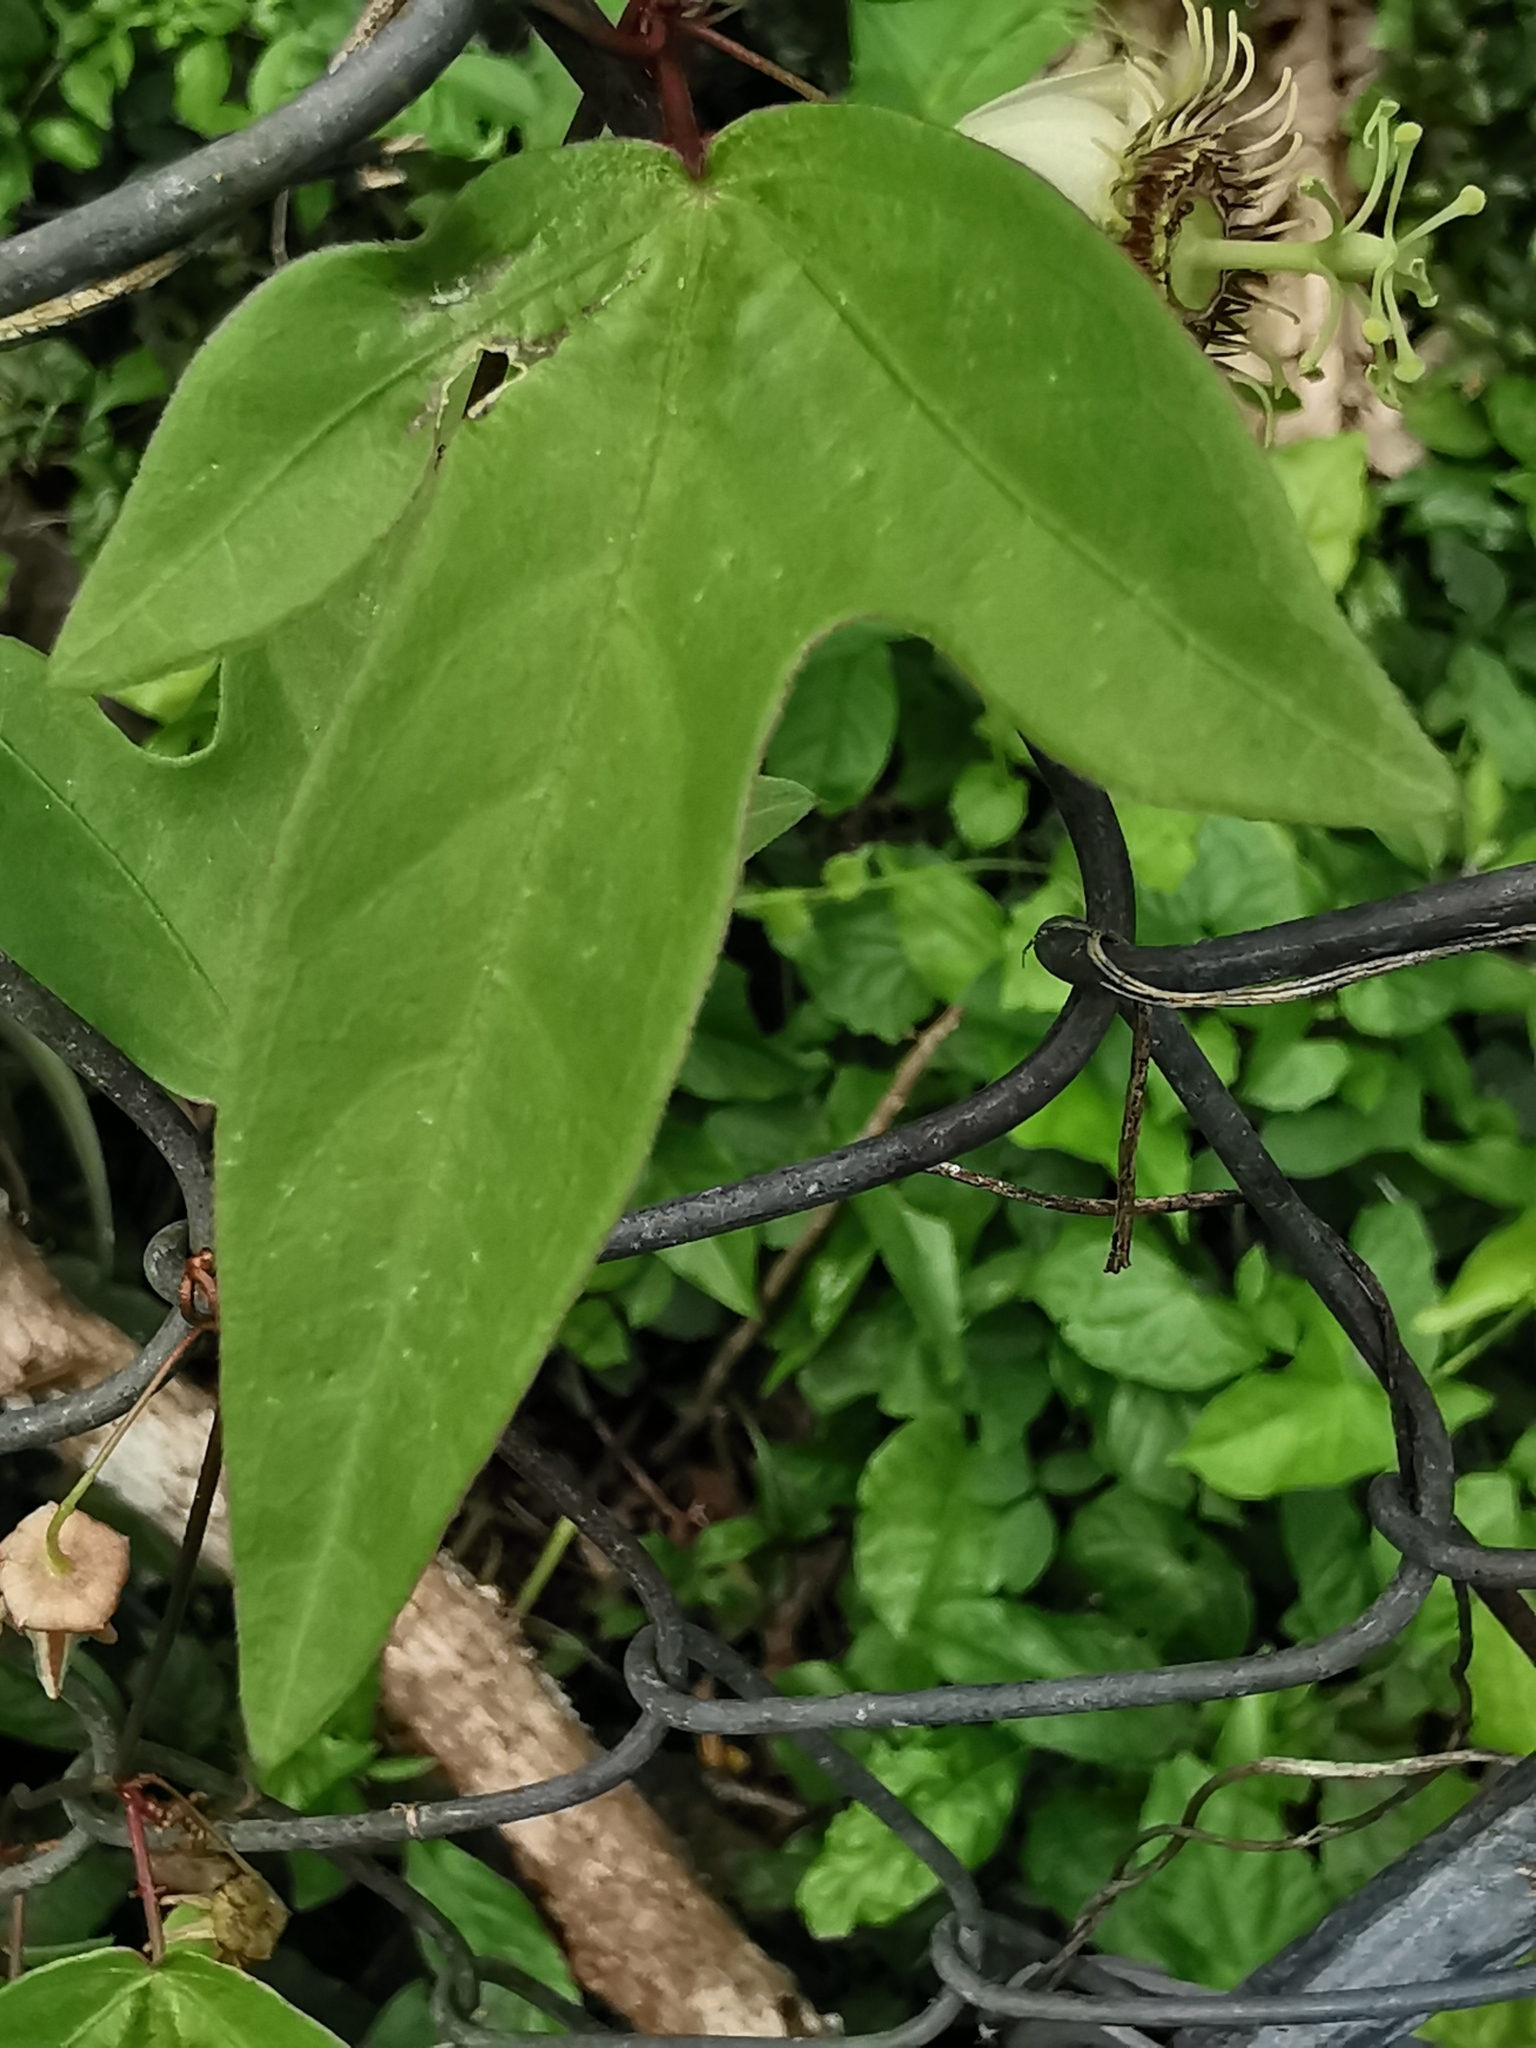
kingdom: Plantae
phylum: Tracheophyta
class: Magnoliopsida
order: Malpighiales
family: Passifloraceae
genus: Passiflora
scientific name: Passiflora suberosa
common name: Wild passionfruit
